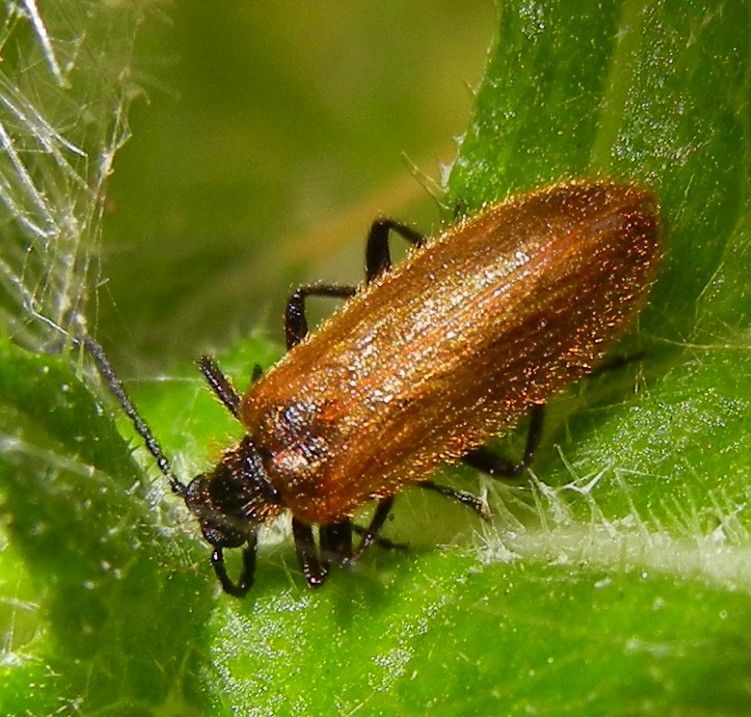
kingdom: Animalia
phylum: Arthropoda
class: Insecta
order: Coleoptera
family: Tenebrionidae
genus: Lagria
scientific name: Lagria hirta
